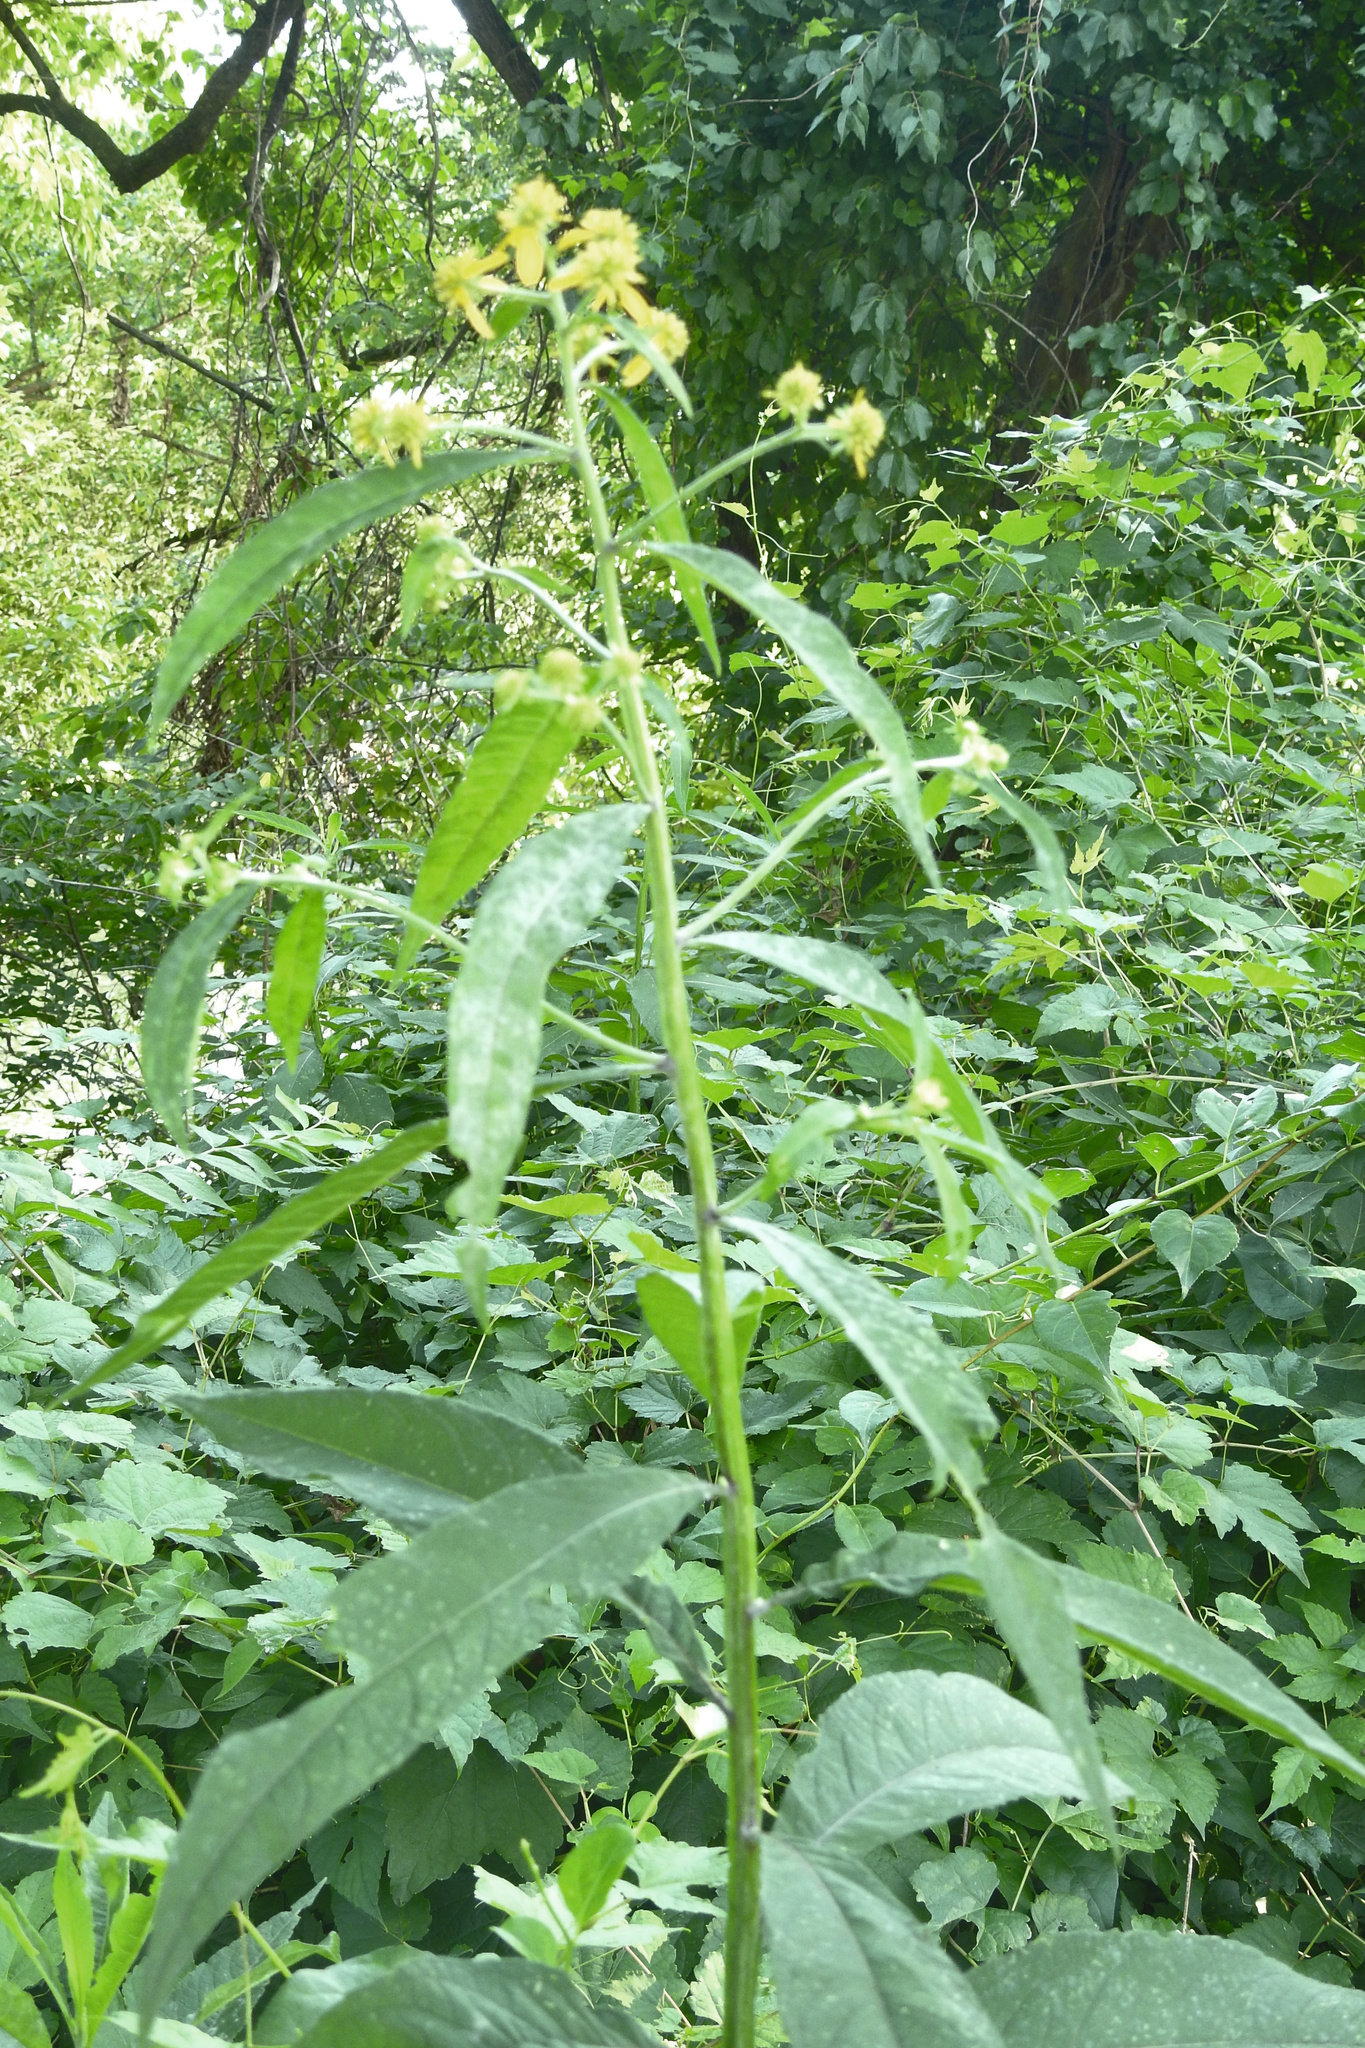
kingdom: Plantae
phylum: Tracheophyta
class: Magnoliopsida
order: Asterales
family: Asteraceae
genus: Verbesina
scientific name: Verbesina alternifolia
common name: Wingstem
